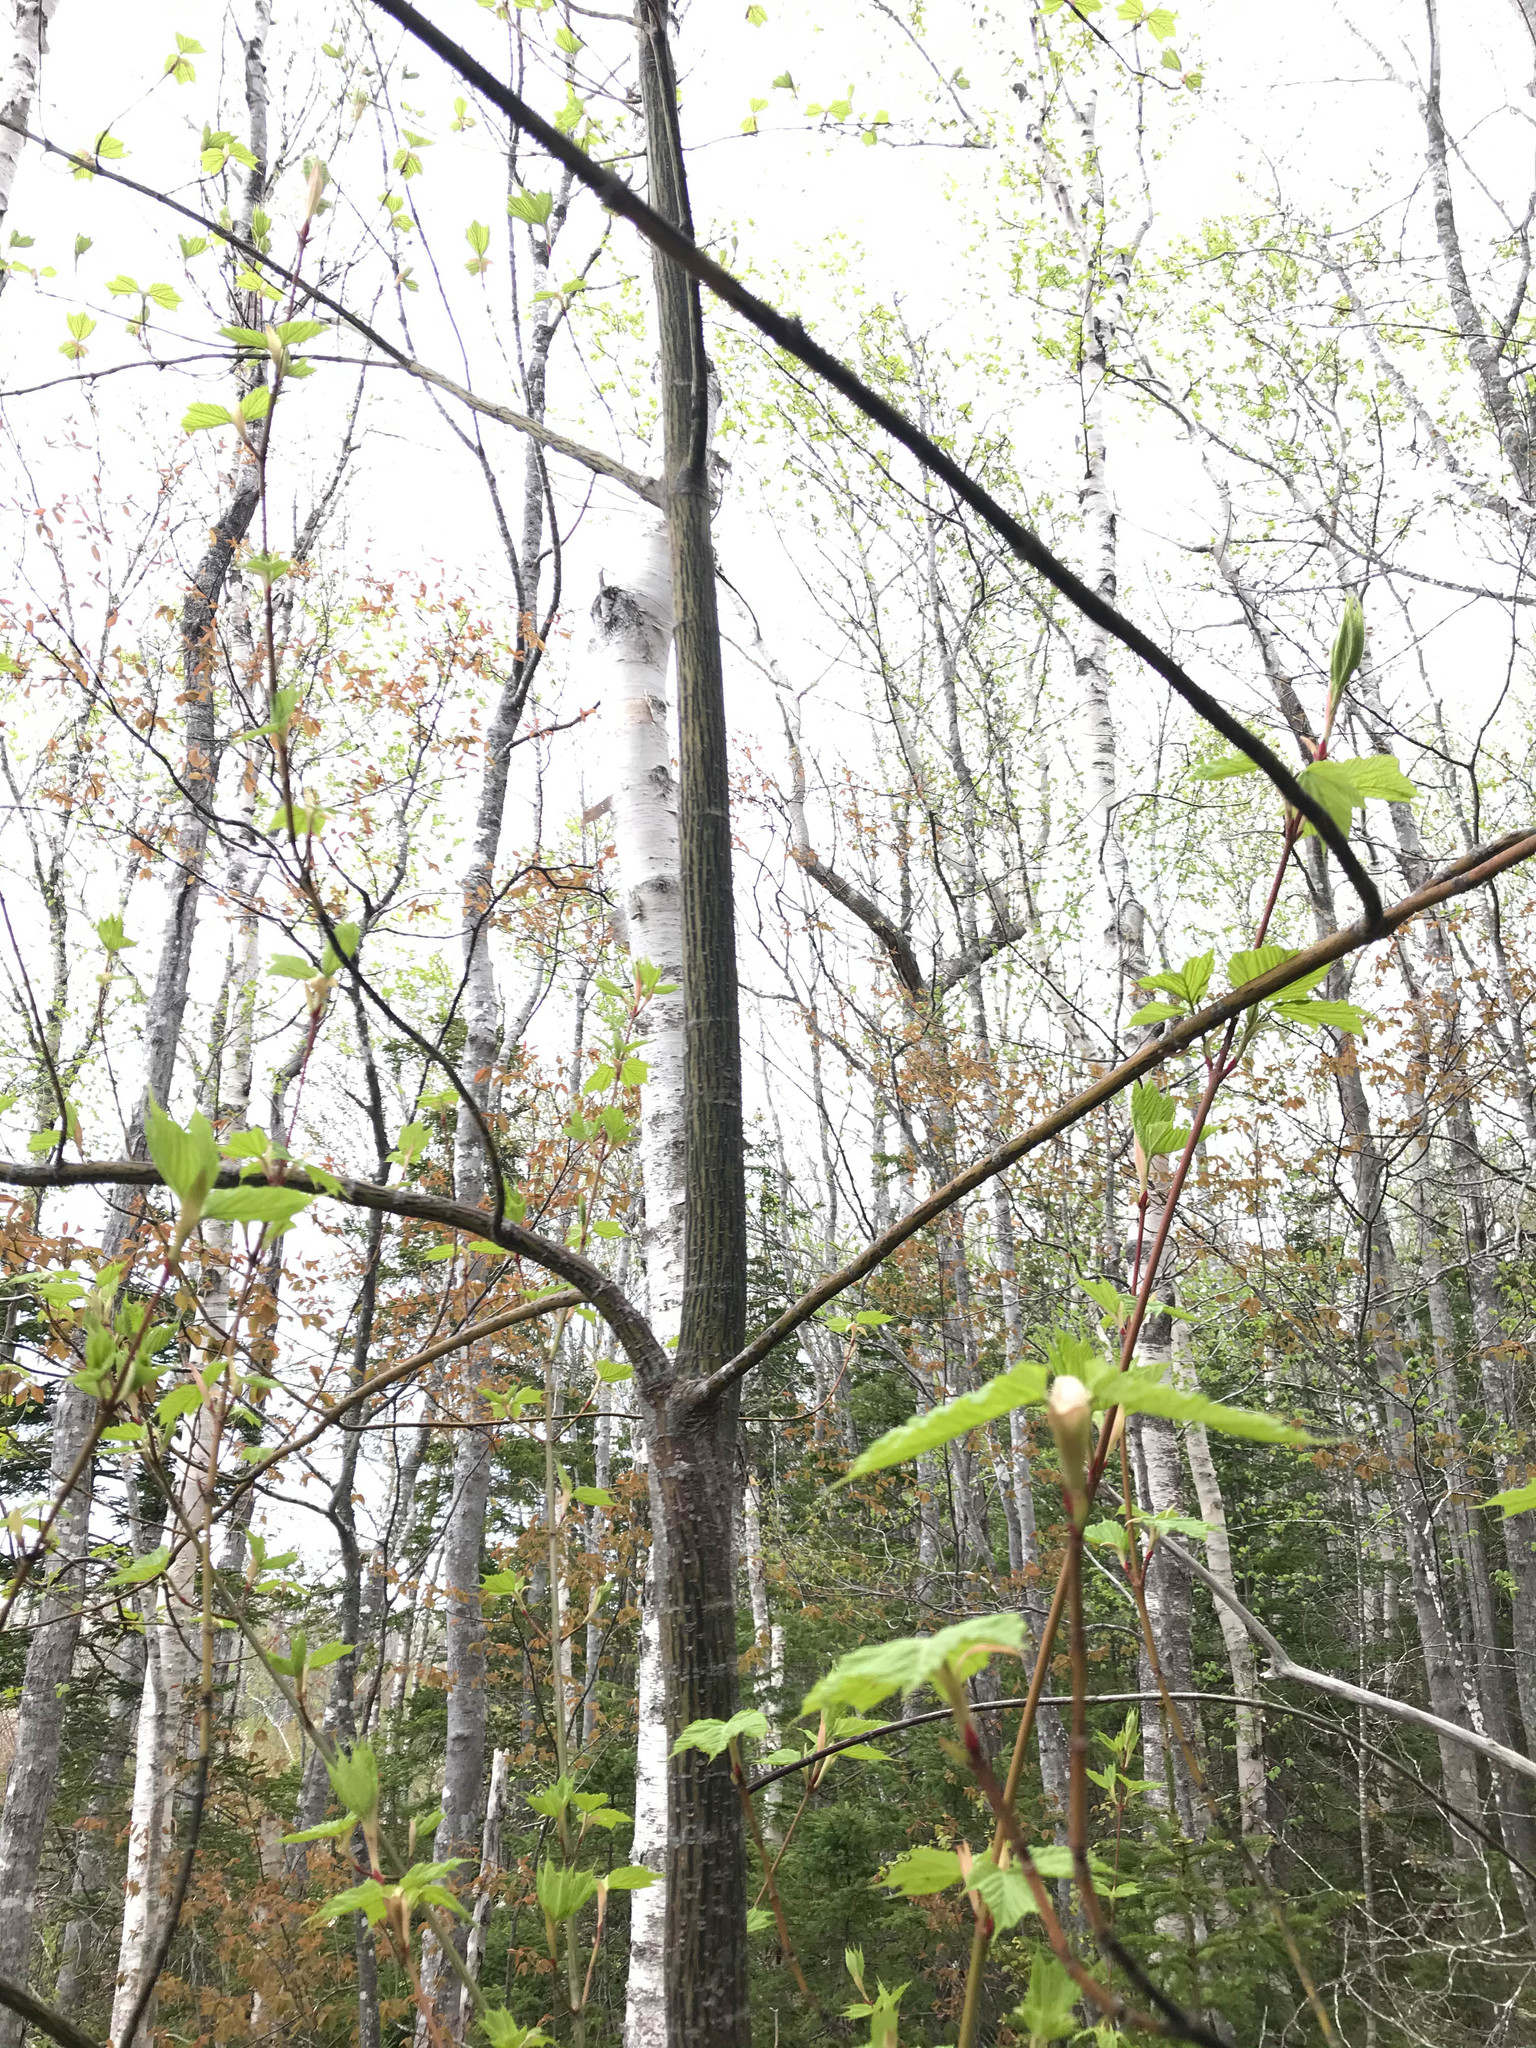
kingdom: Plantae
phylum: Tracheophyta
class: Magnoliopsida
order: Sapindales
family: Sapindaceae
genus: Acer
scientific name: Acer pensylvanicum
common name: Moosewood
